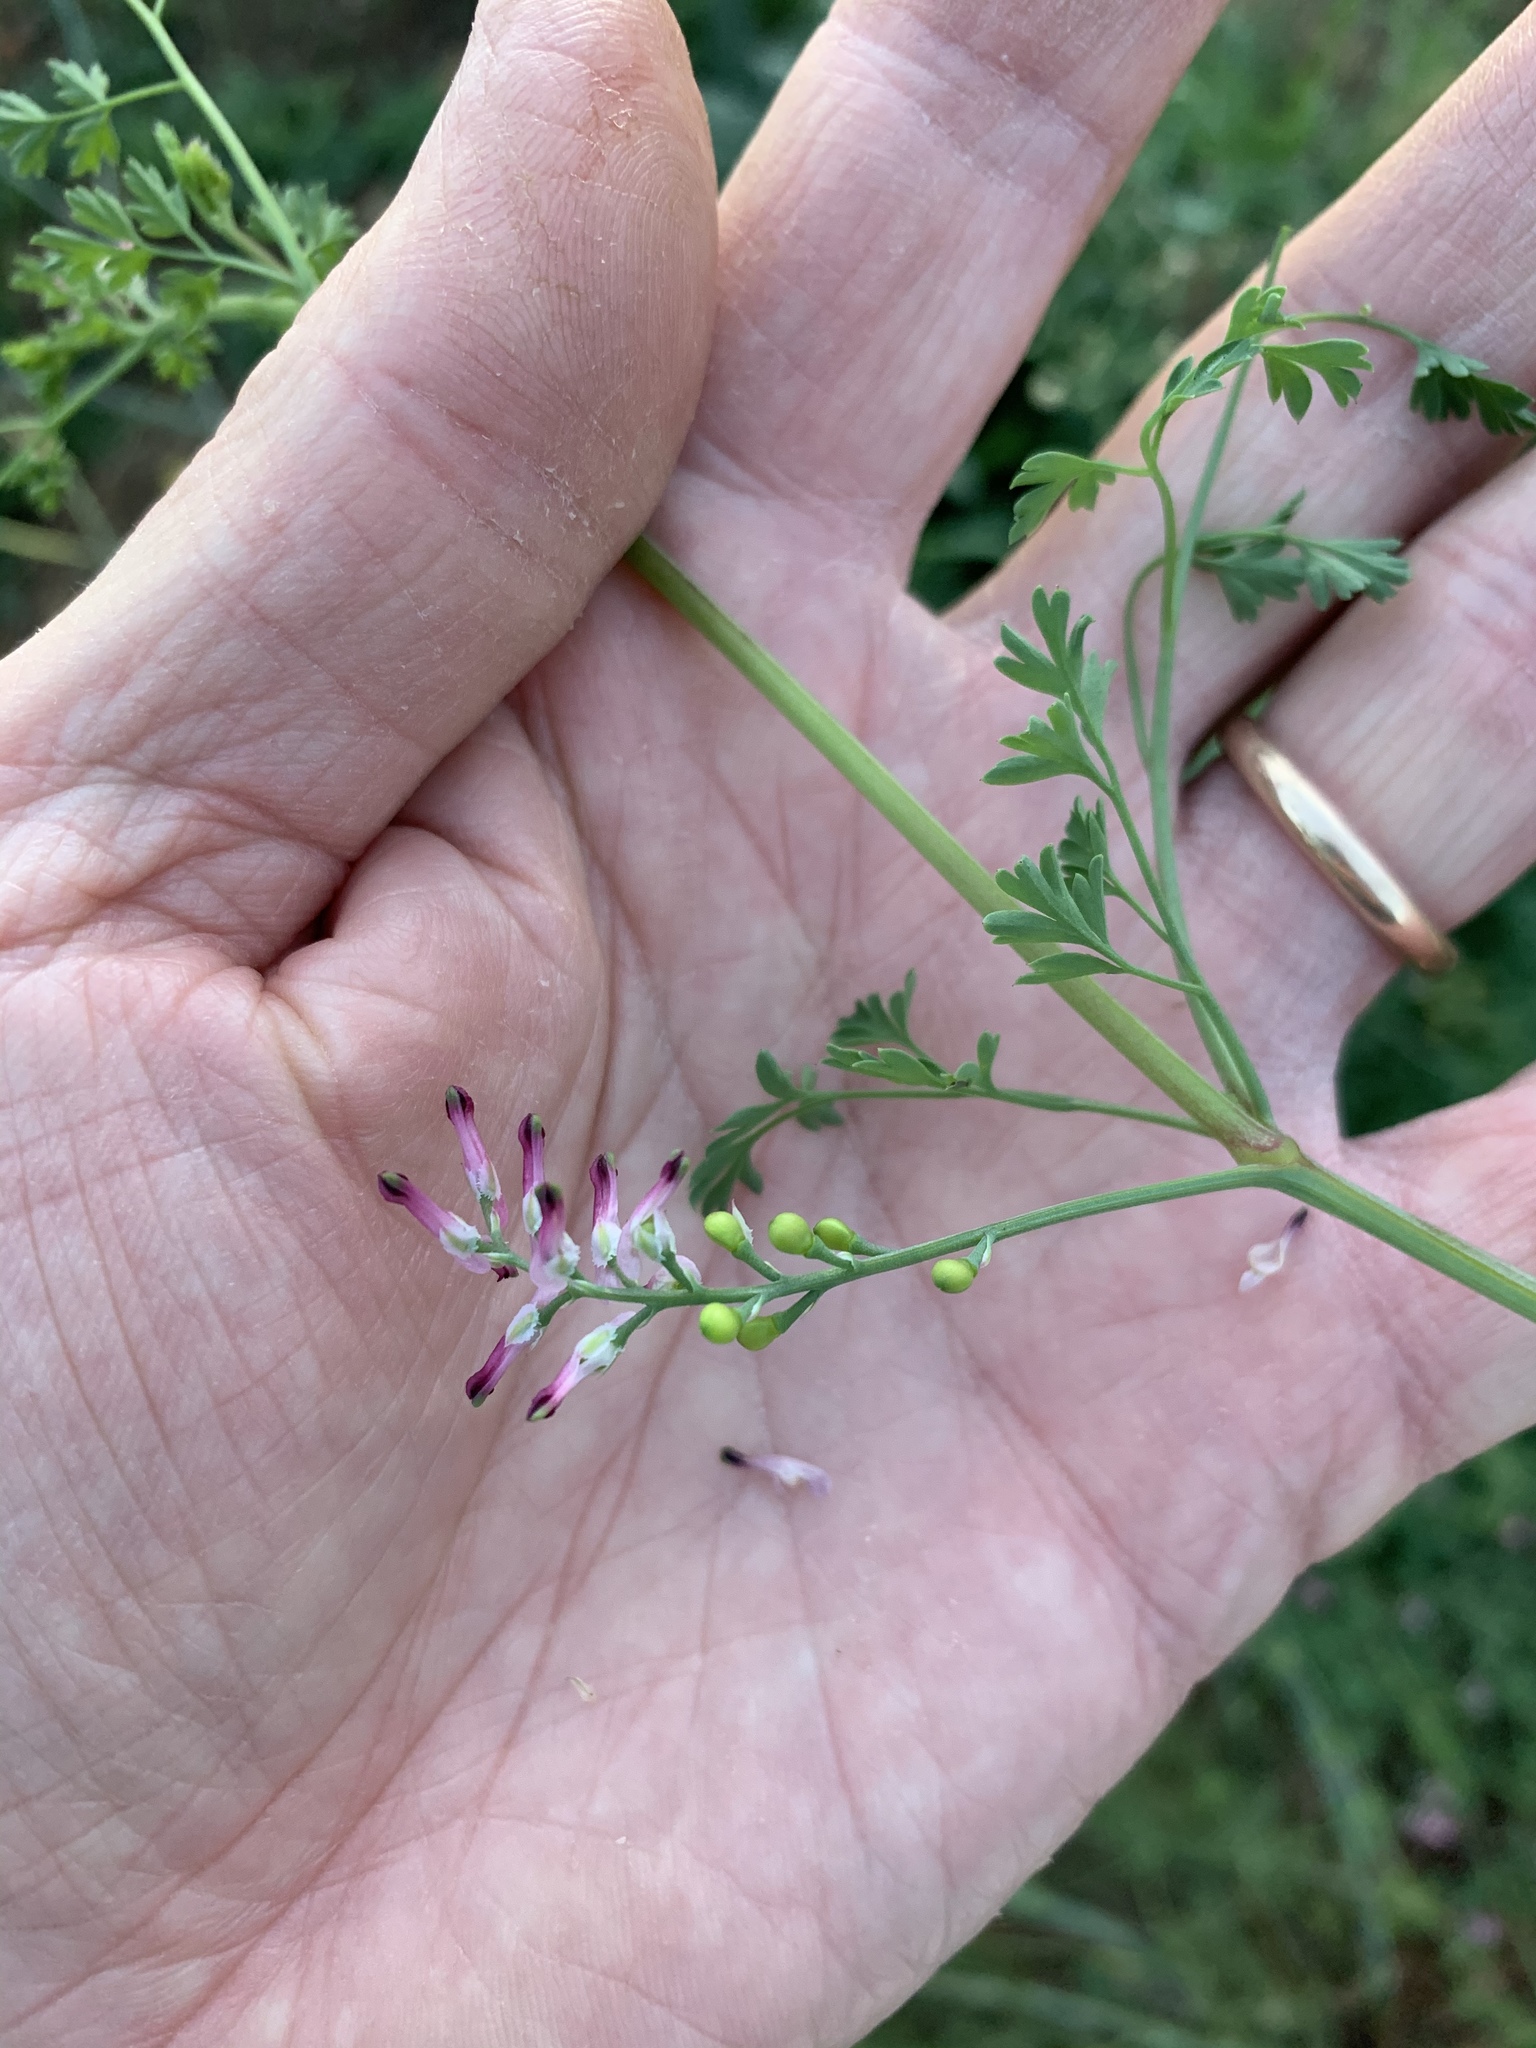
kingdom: Plantae
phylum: Tracheophyta
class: Magnoliopsida
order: Ranunculales
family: Papaveraceae
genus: Fumaria
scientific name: Fumaria muralis
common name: Common ramping-fumitory
